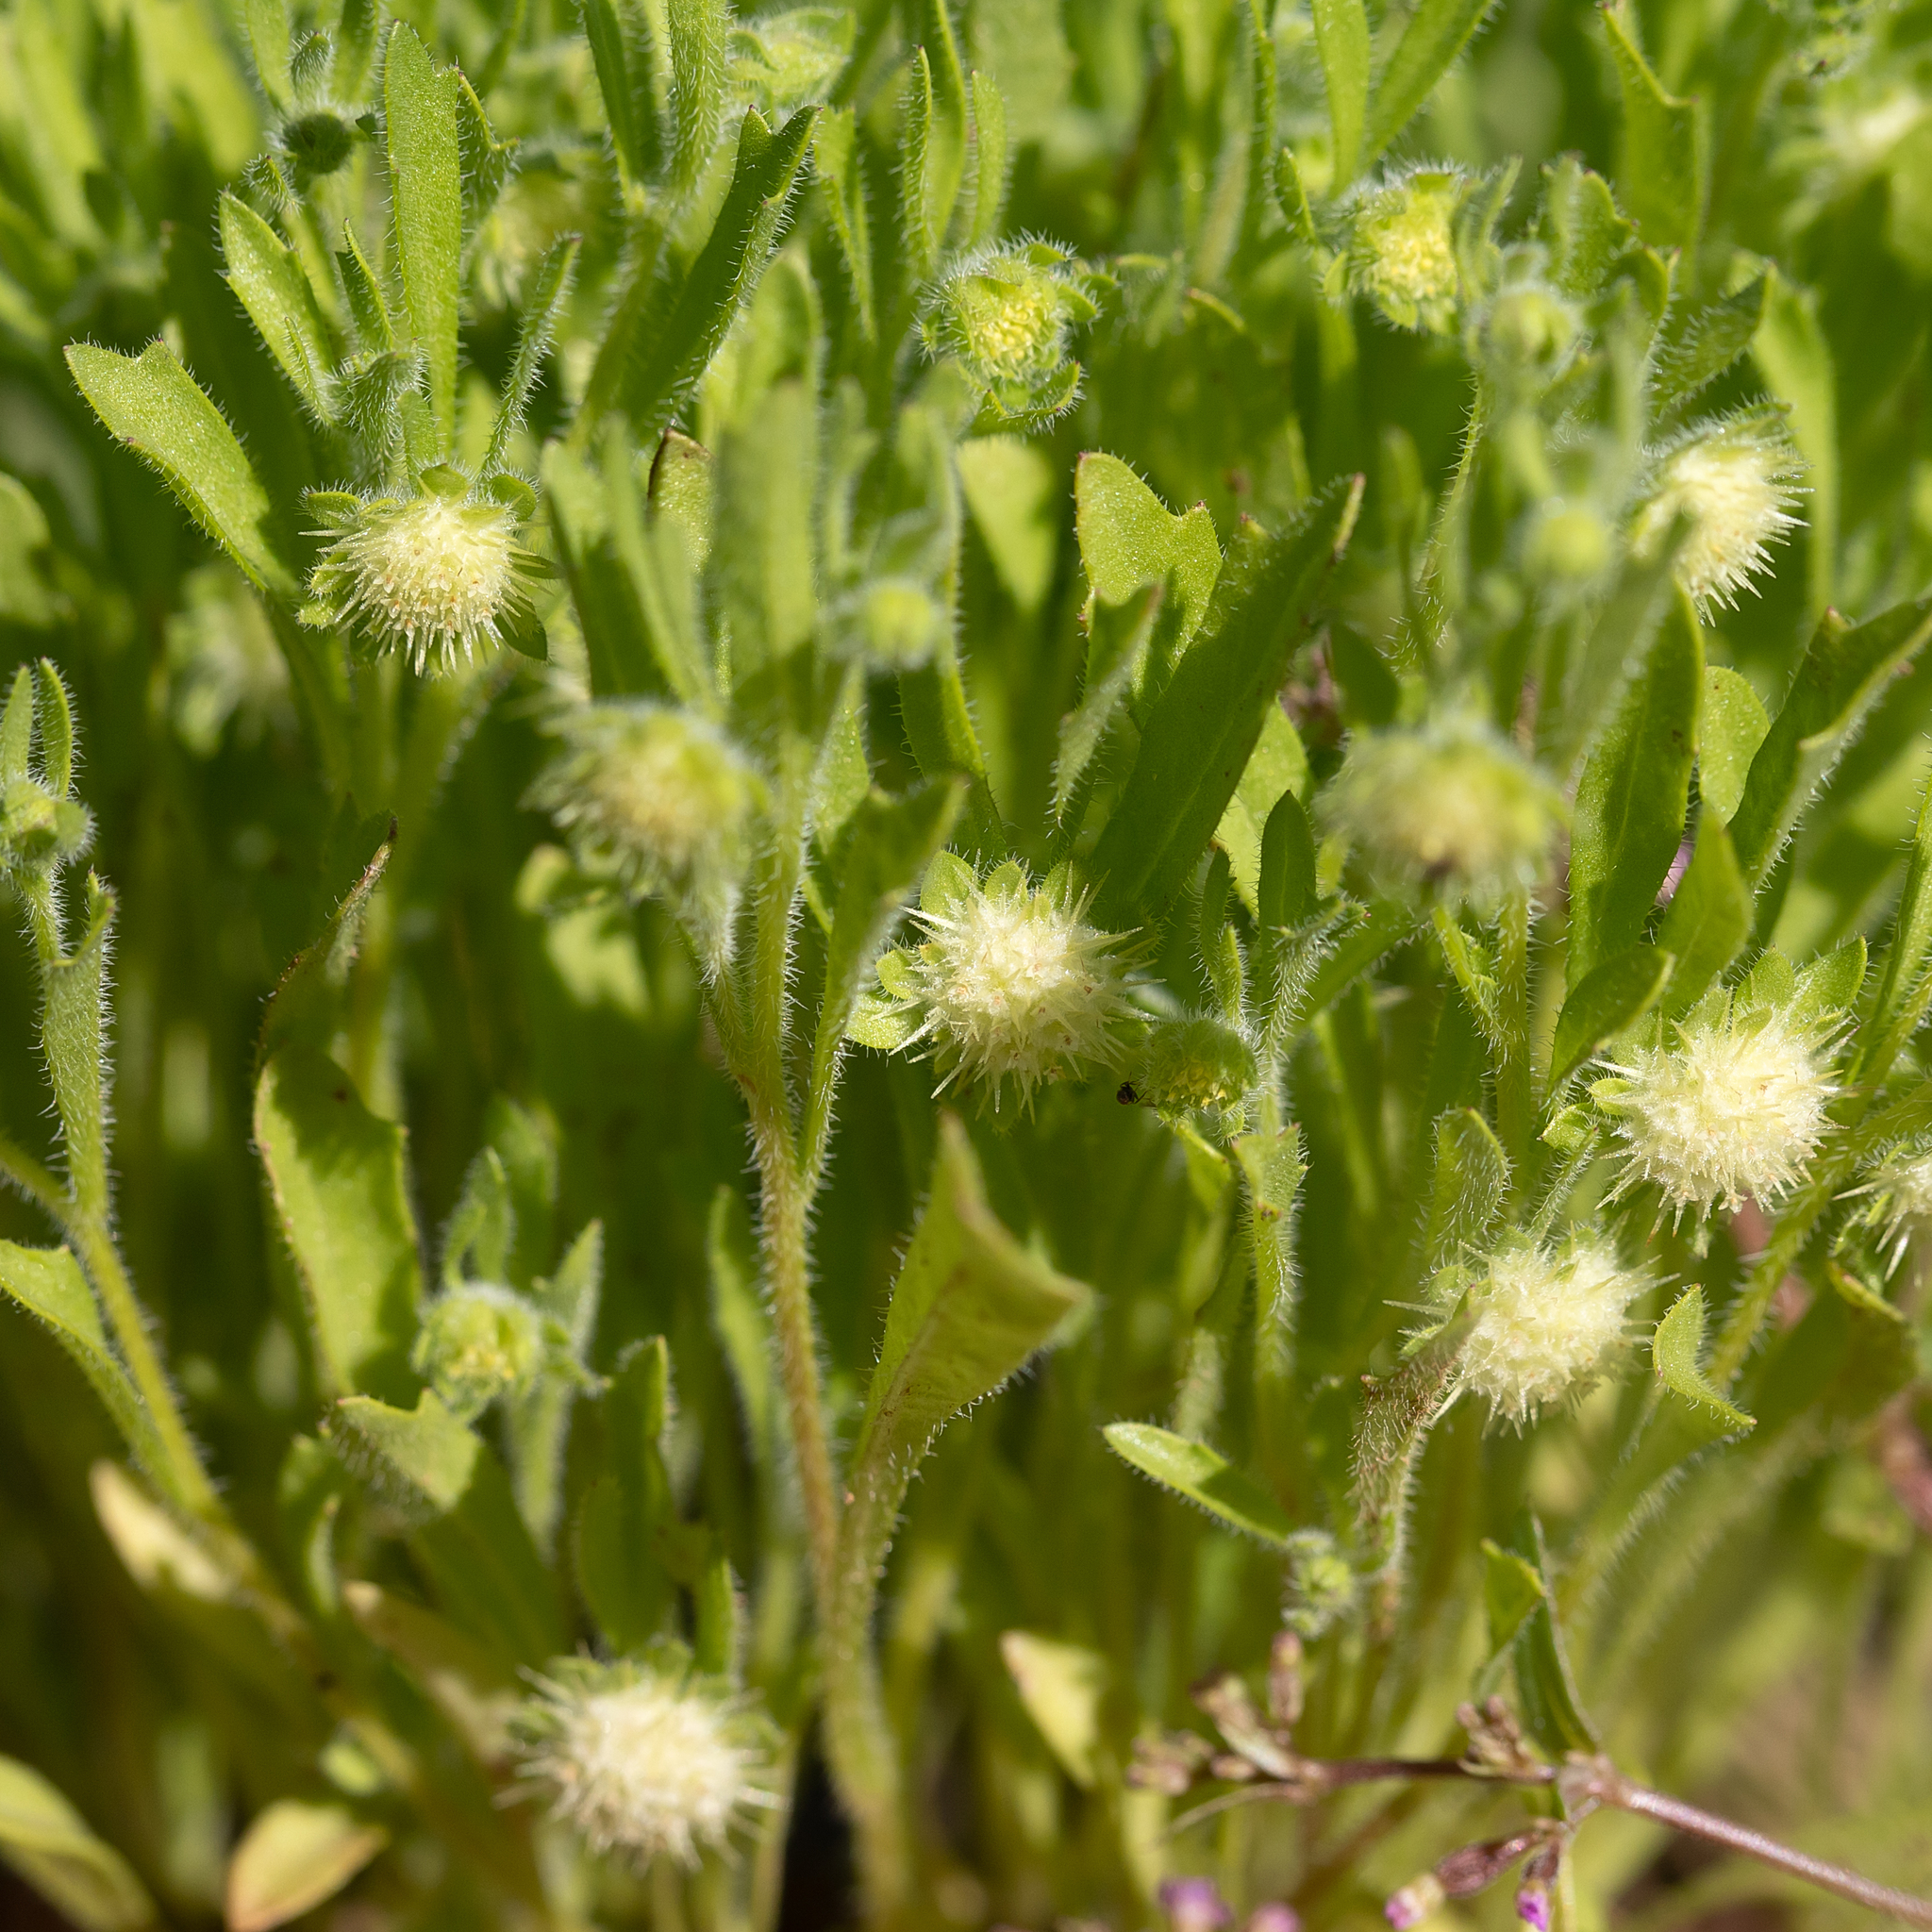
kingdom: Plantae
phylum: Tracheophyta
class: Magnoliopsida
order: Asterales
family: Asteraceae
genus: Calotis
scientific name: Calotis hispidula
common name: Bogan-flea
